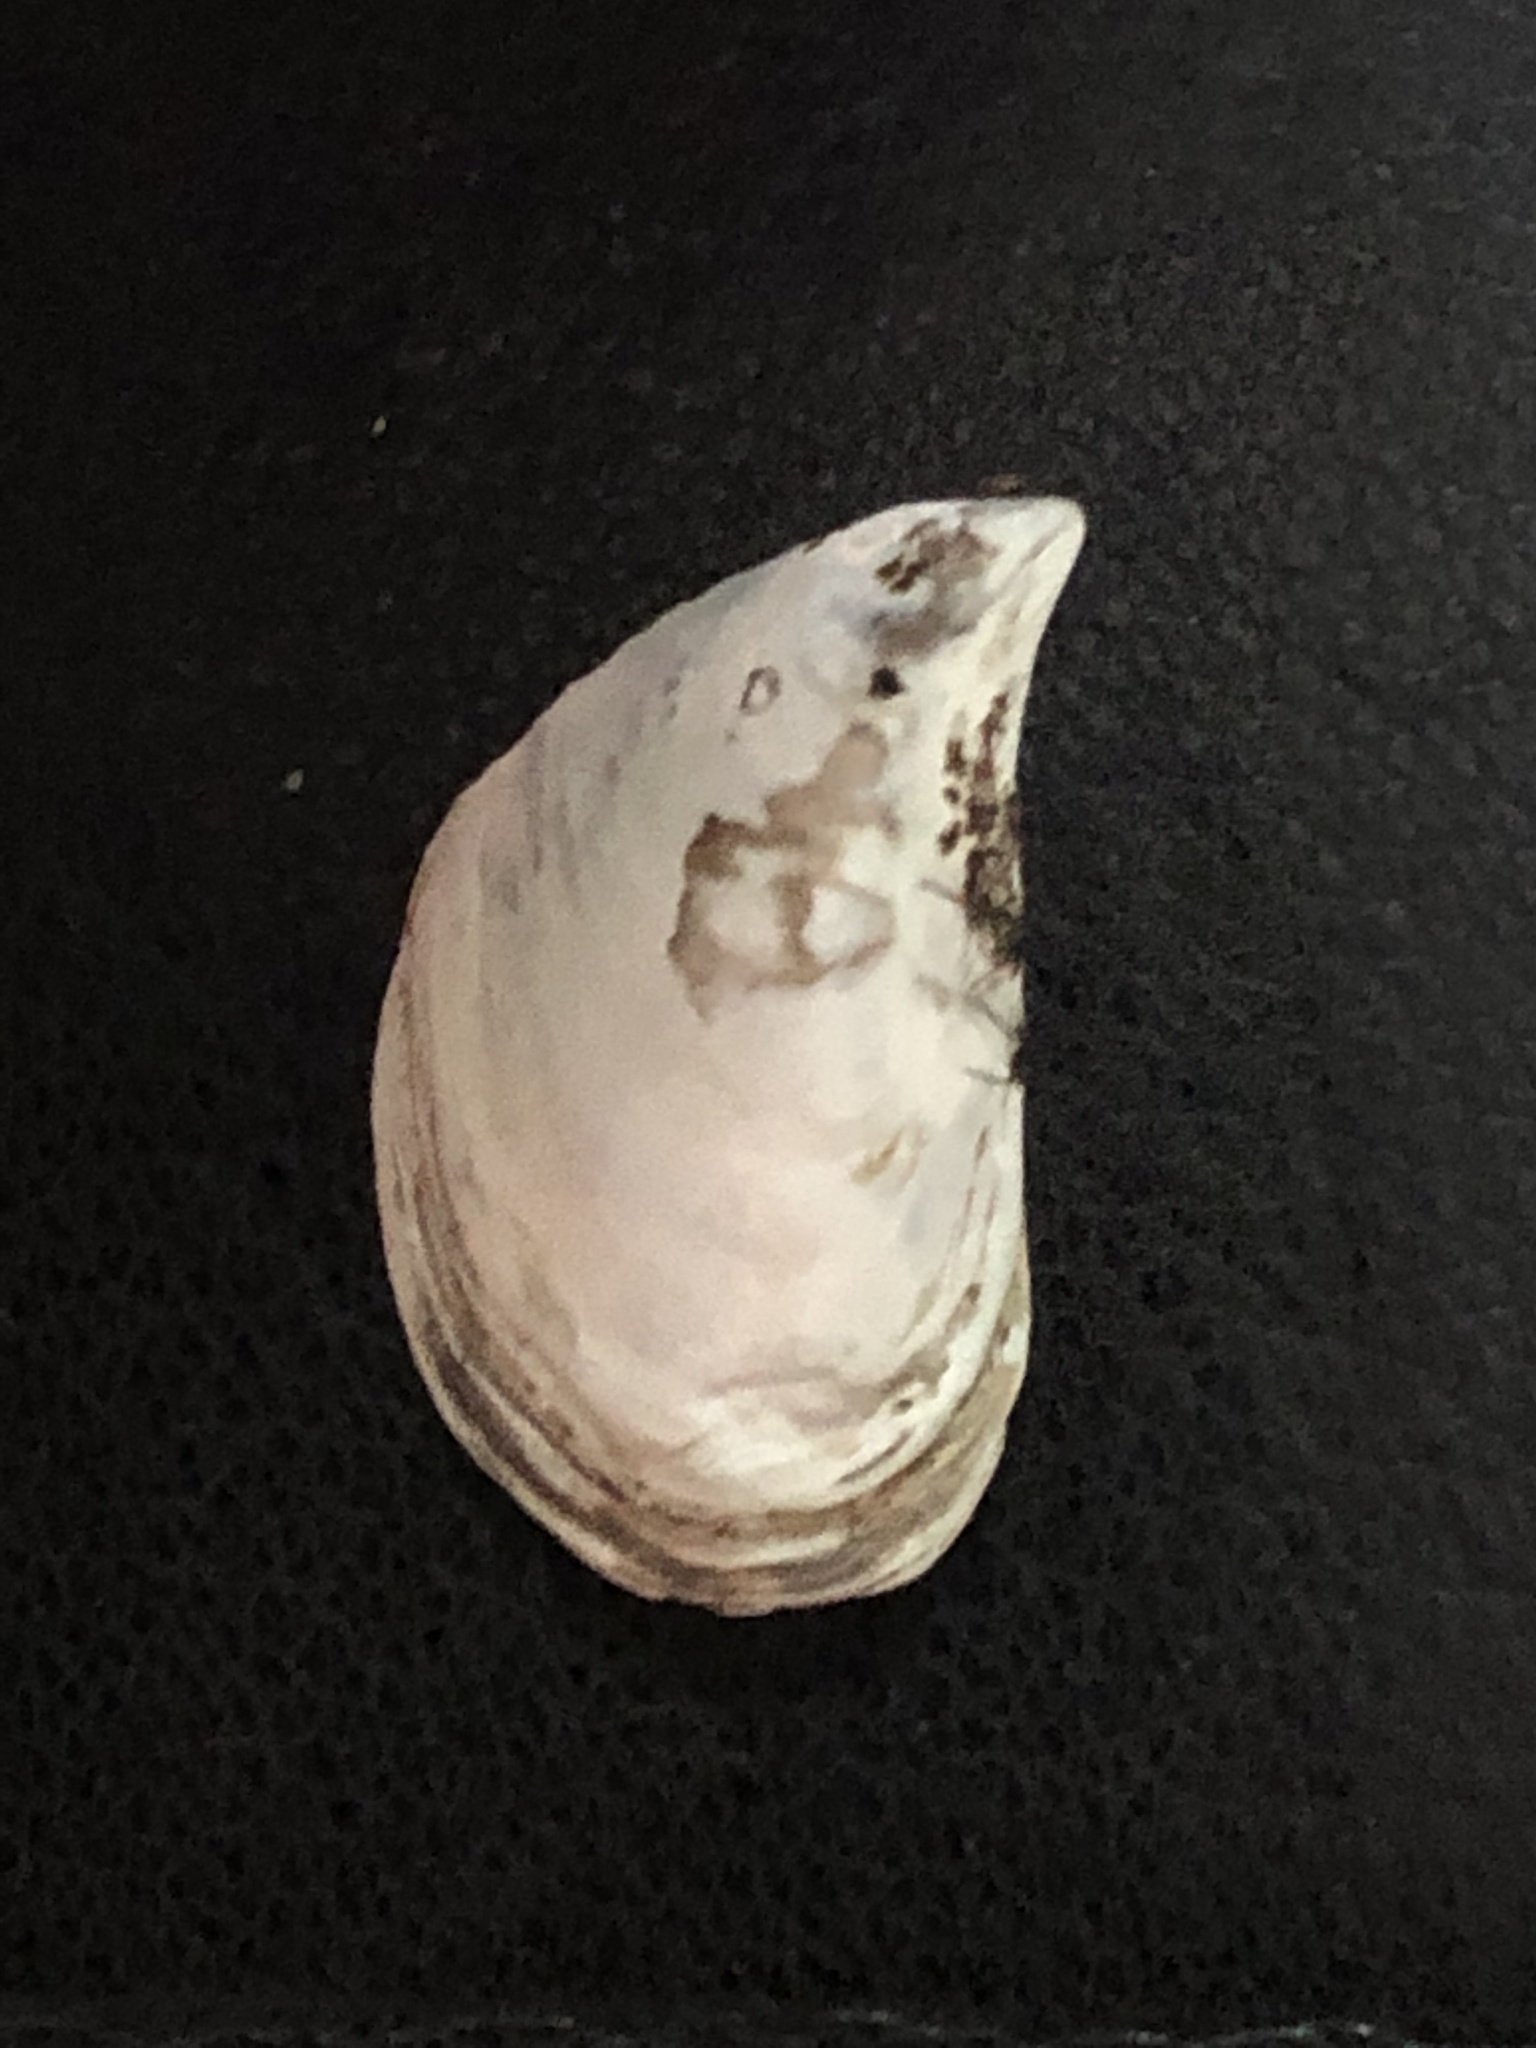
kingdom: Animalia
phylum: Mollusca
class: Bivalvia
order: Myida
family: Dreissenidae
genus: Dreissena
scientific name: Dreissena bugensis
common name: Quagga mussel
